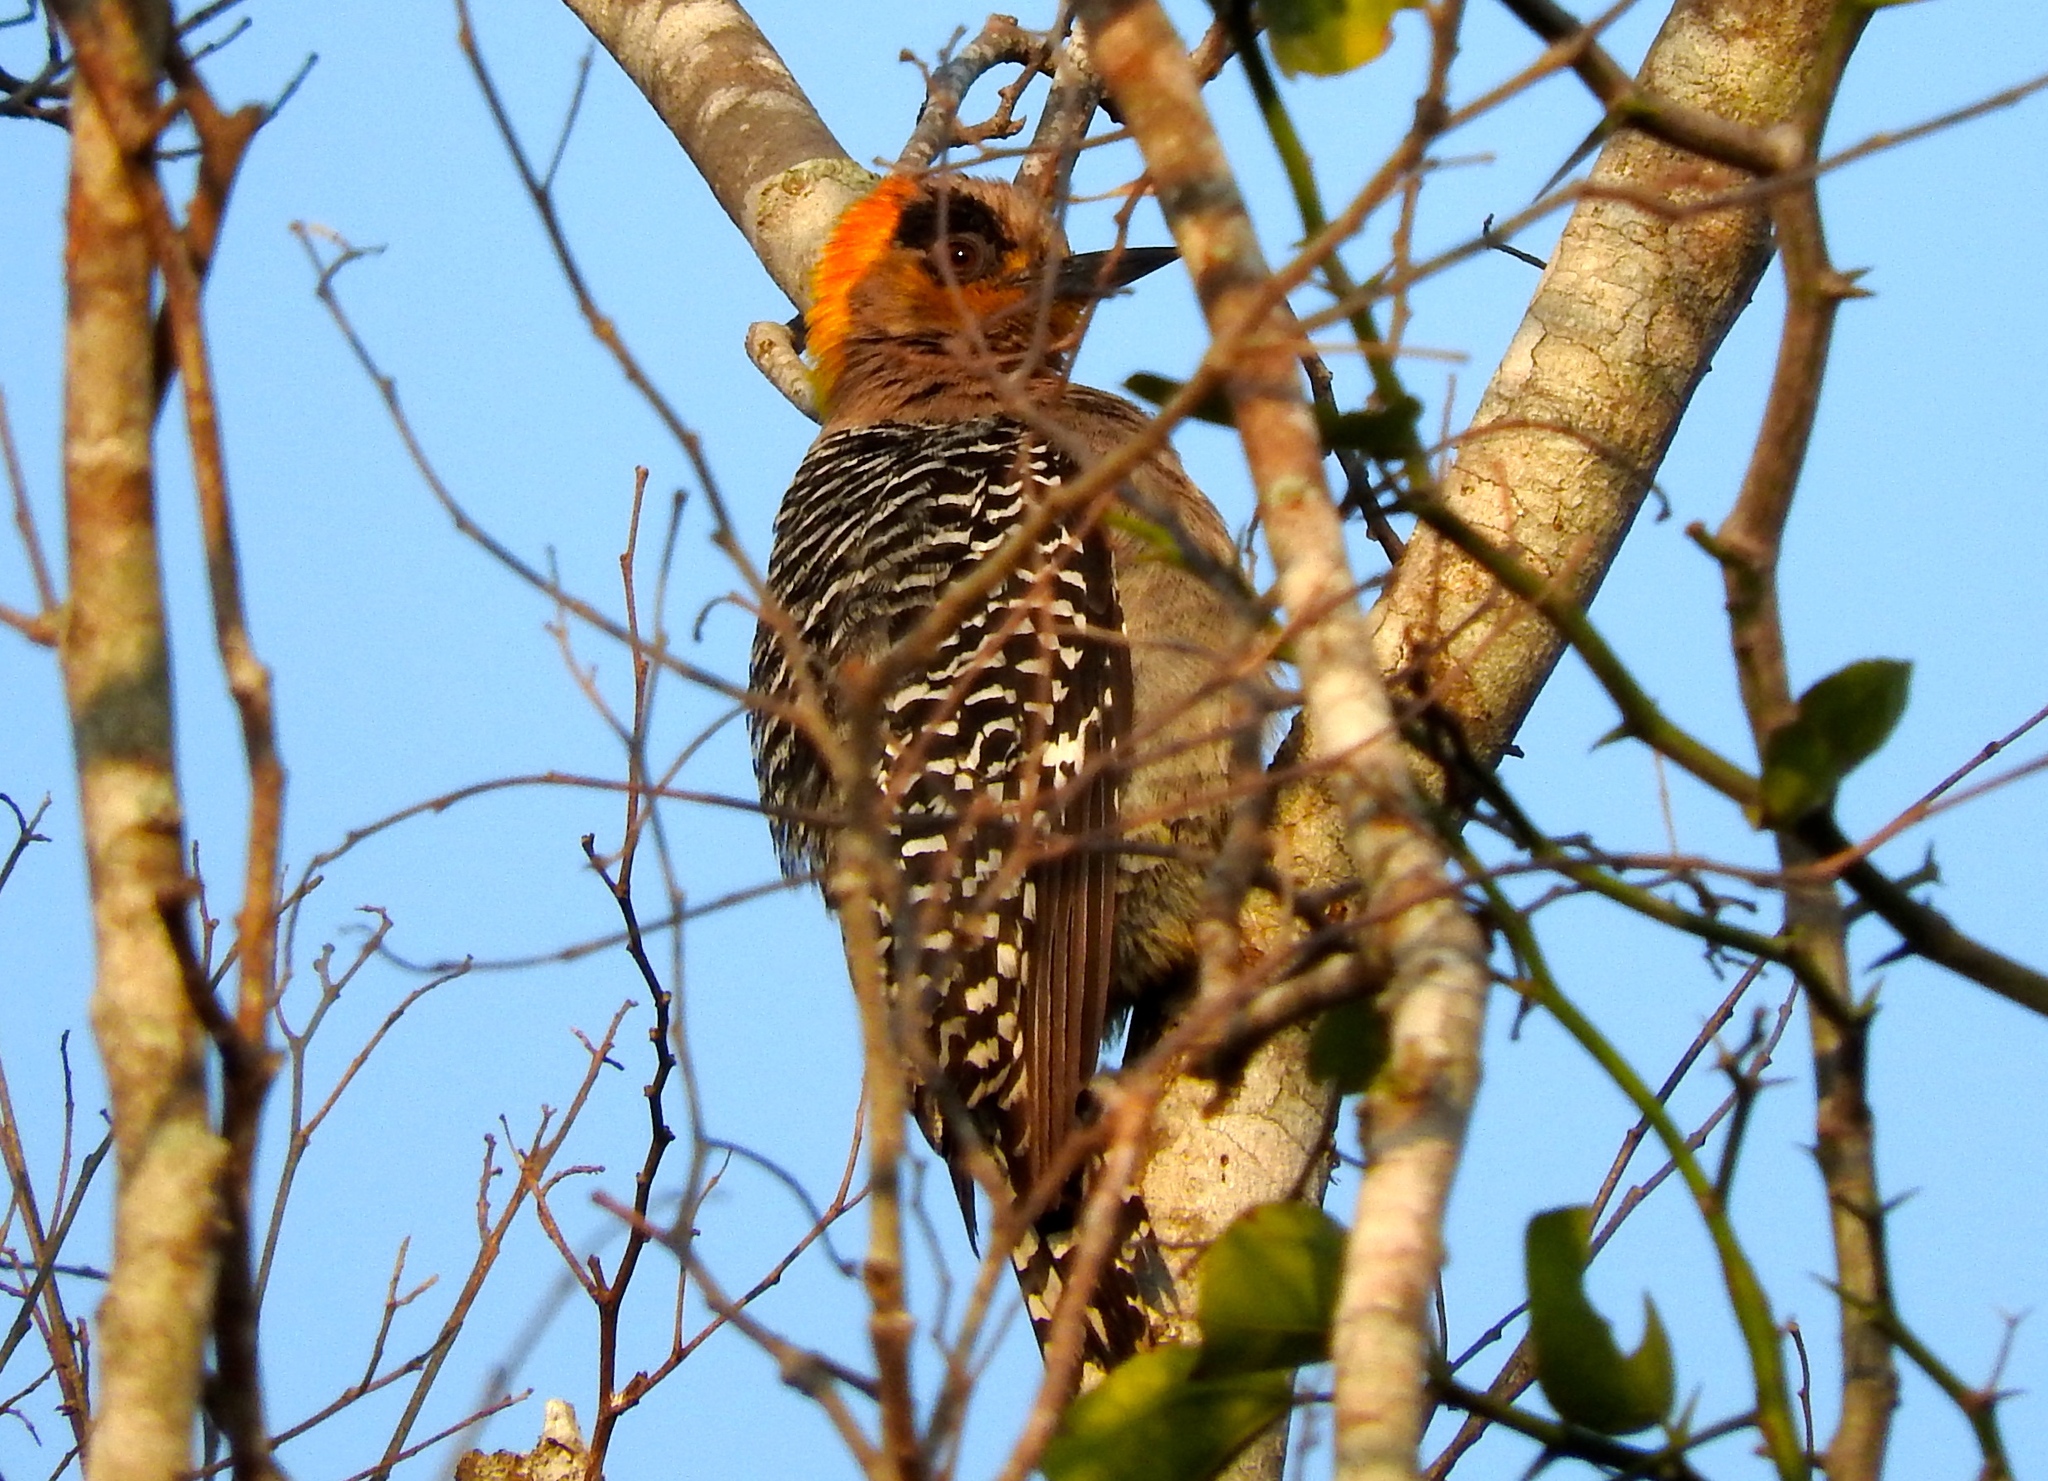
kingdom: Animalia
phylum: Chordata
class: Aves
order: Piciformes
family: Picidae
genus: Melanerpes
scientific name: Melanerpes chrysogenys
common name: Golden-cheeked woodpecker
